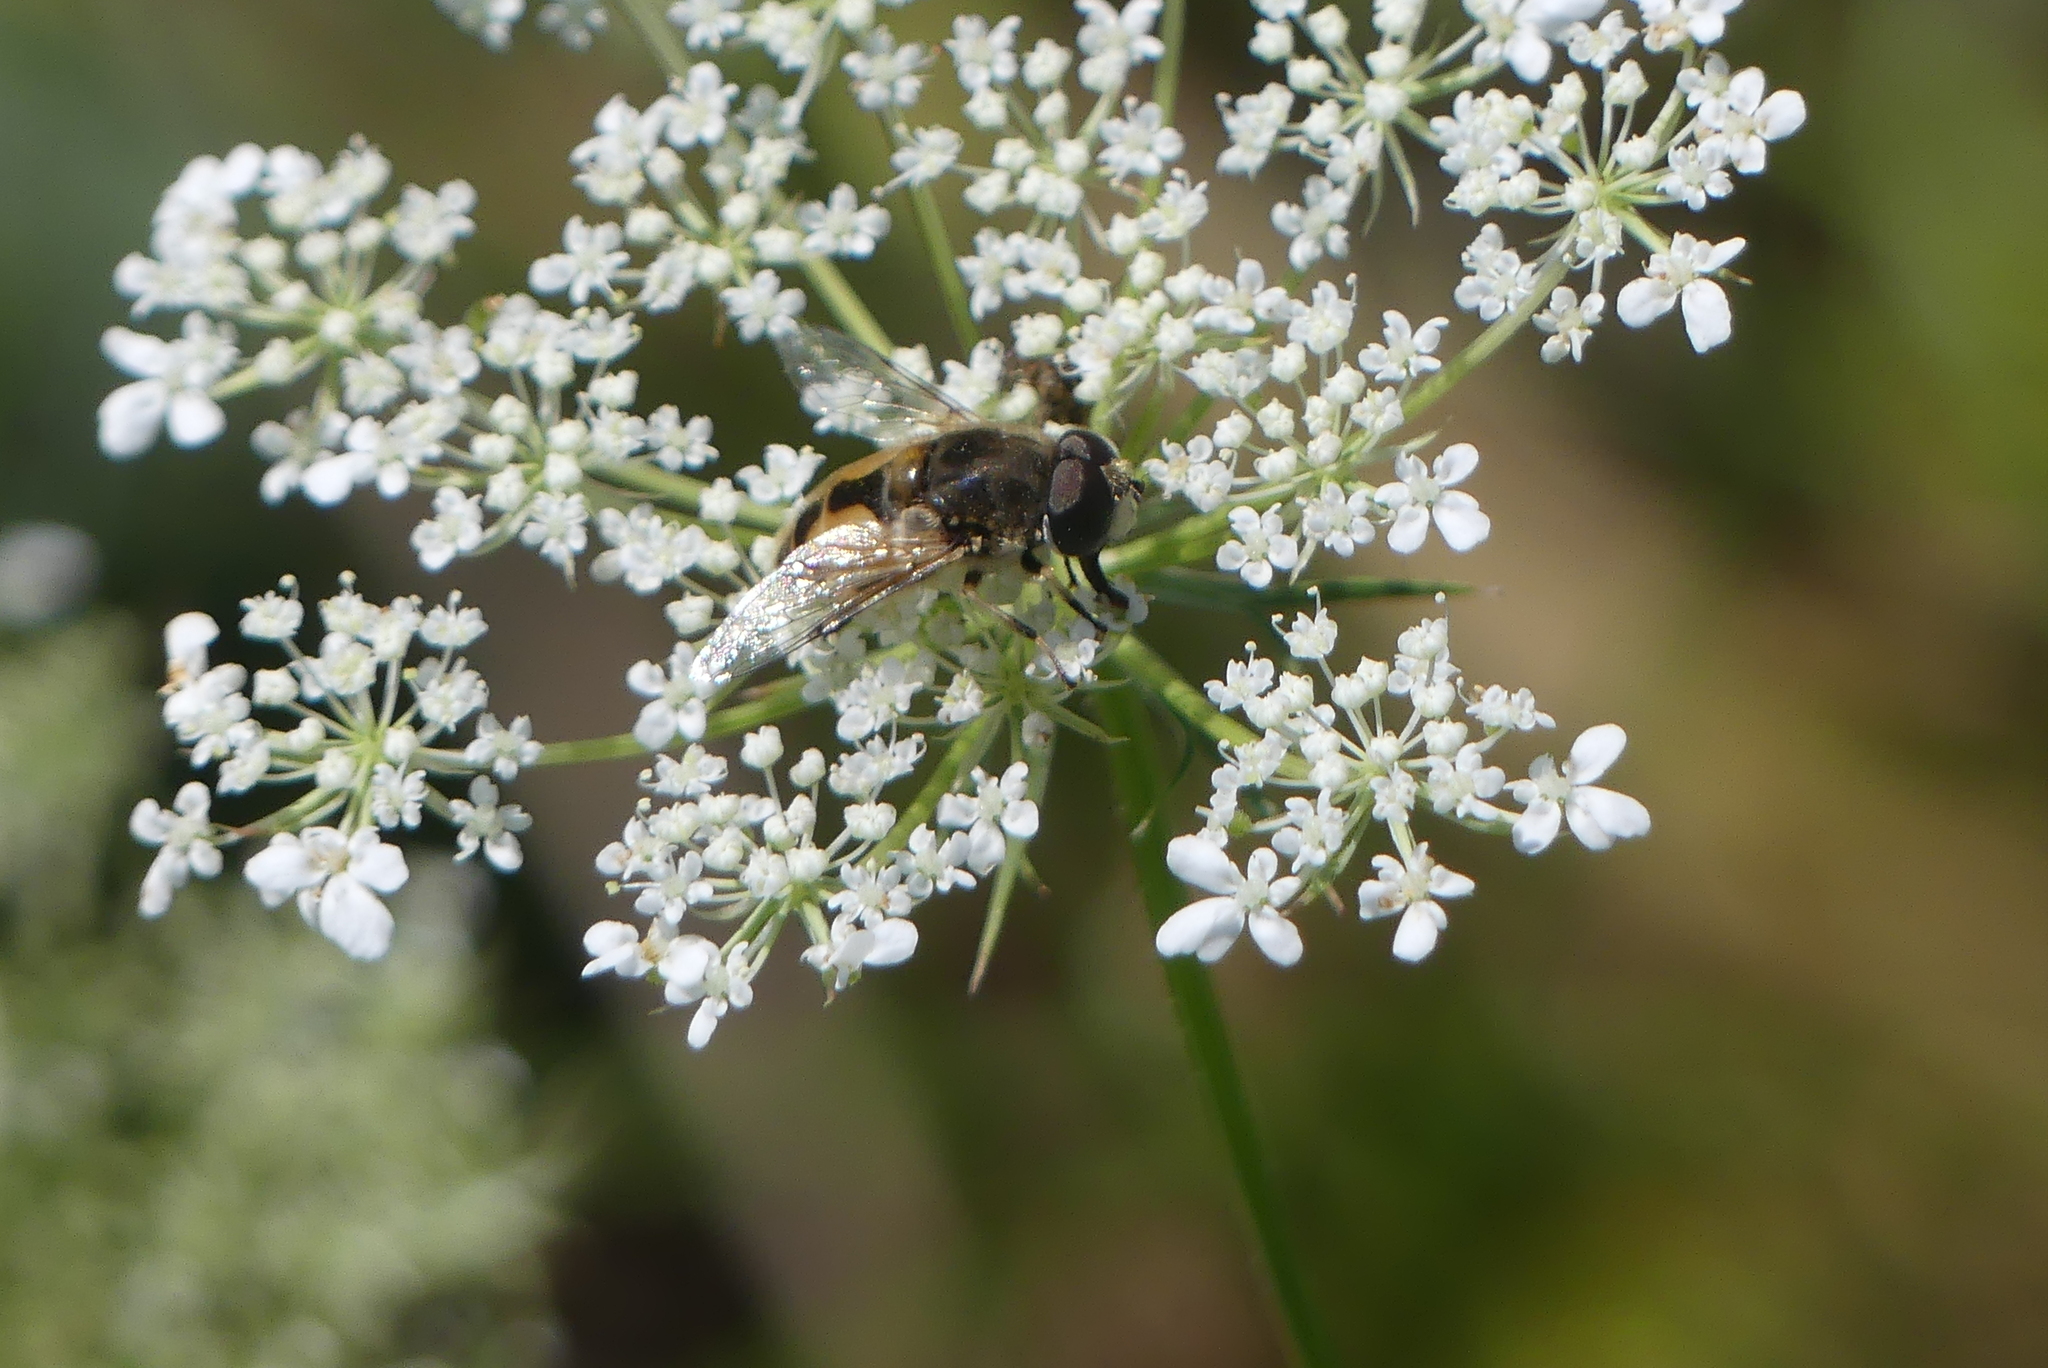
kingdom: Animalia
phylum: Arthropoda
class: Insecta
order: Diptera
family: Syrphidae
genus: Eristalis
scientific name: Eristalis arbustorum
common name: Hover fly
